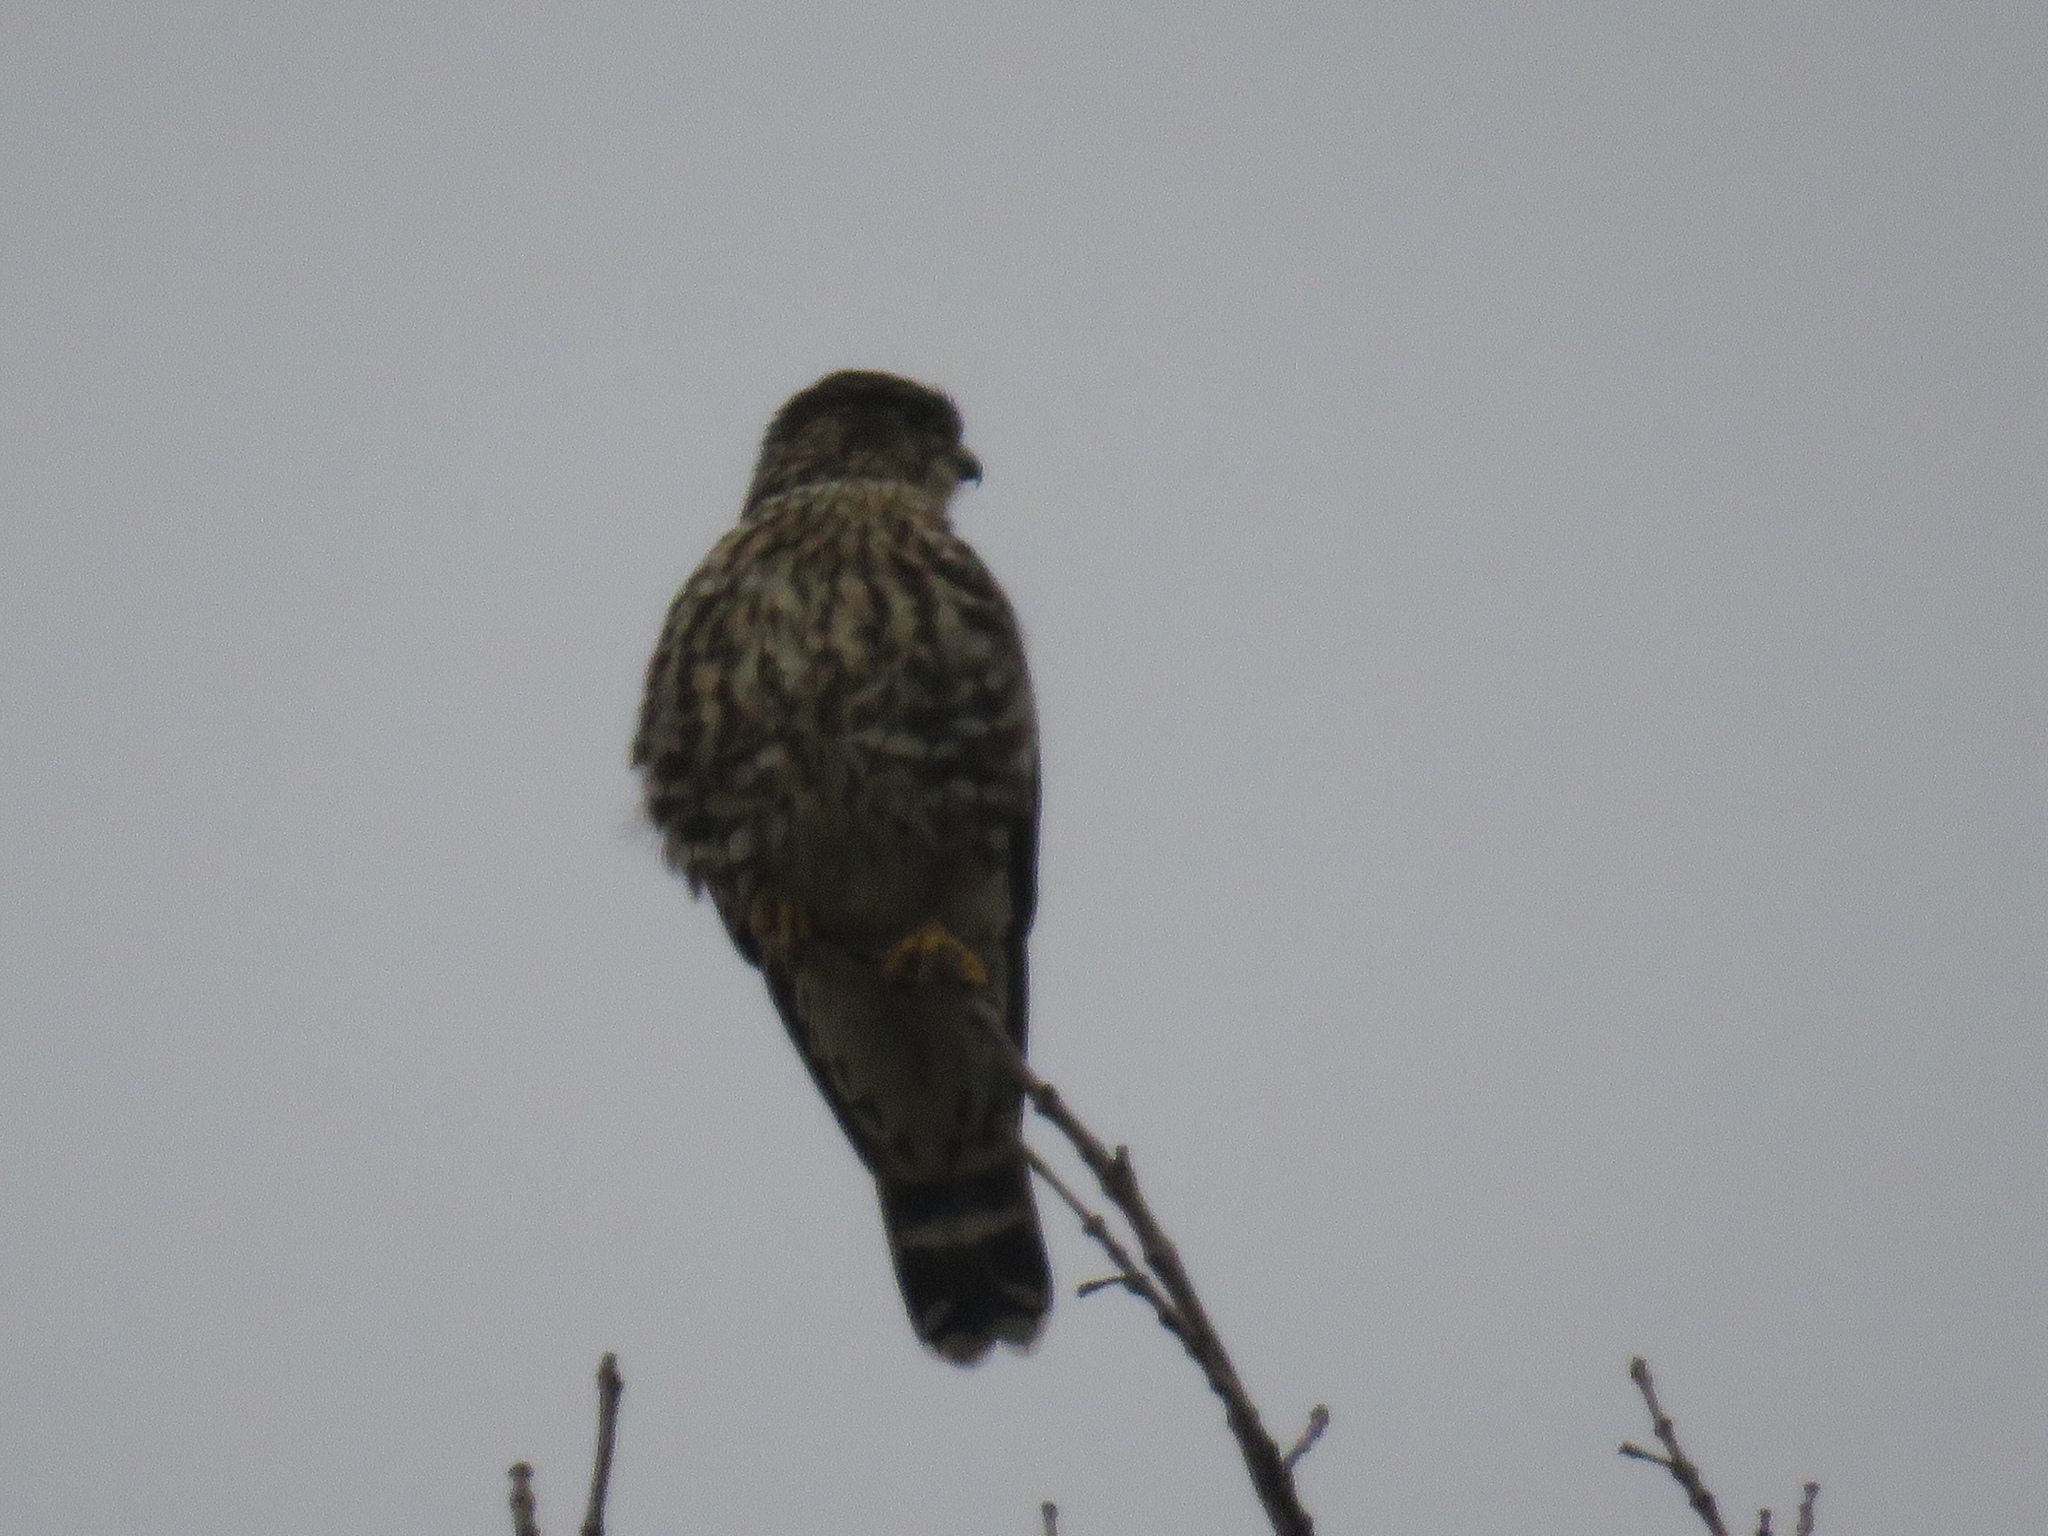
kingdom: Animalia
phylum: Chordata
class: Aves
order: Falconiformes
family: Falconidae
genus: Falco
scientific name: Falco columbarius
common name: Merlin
